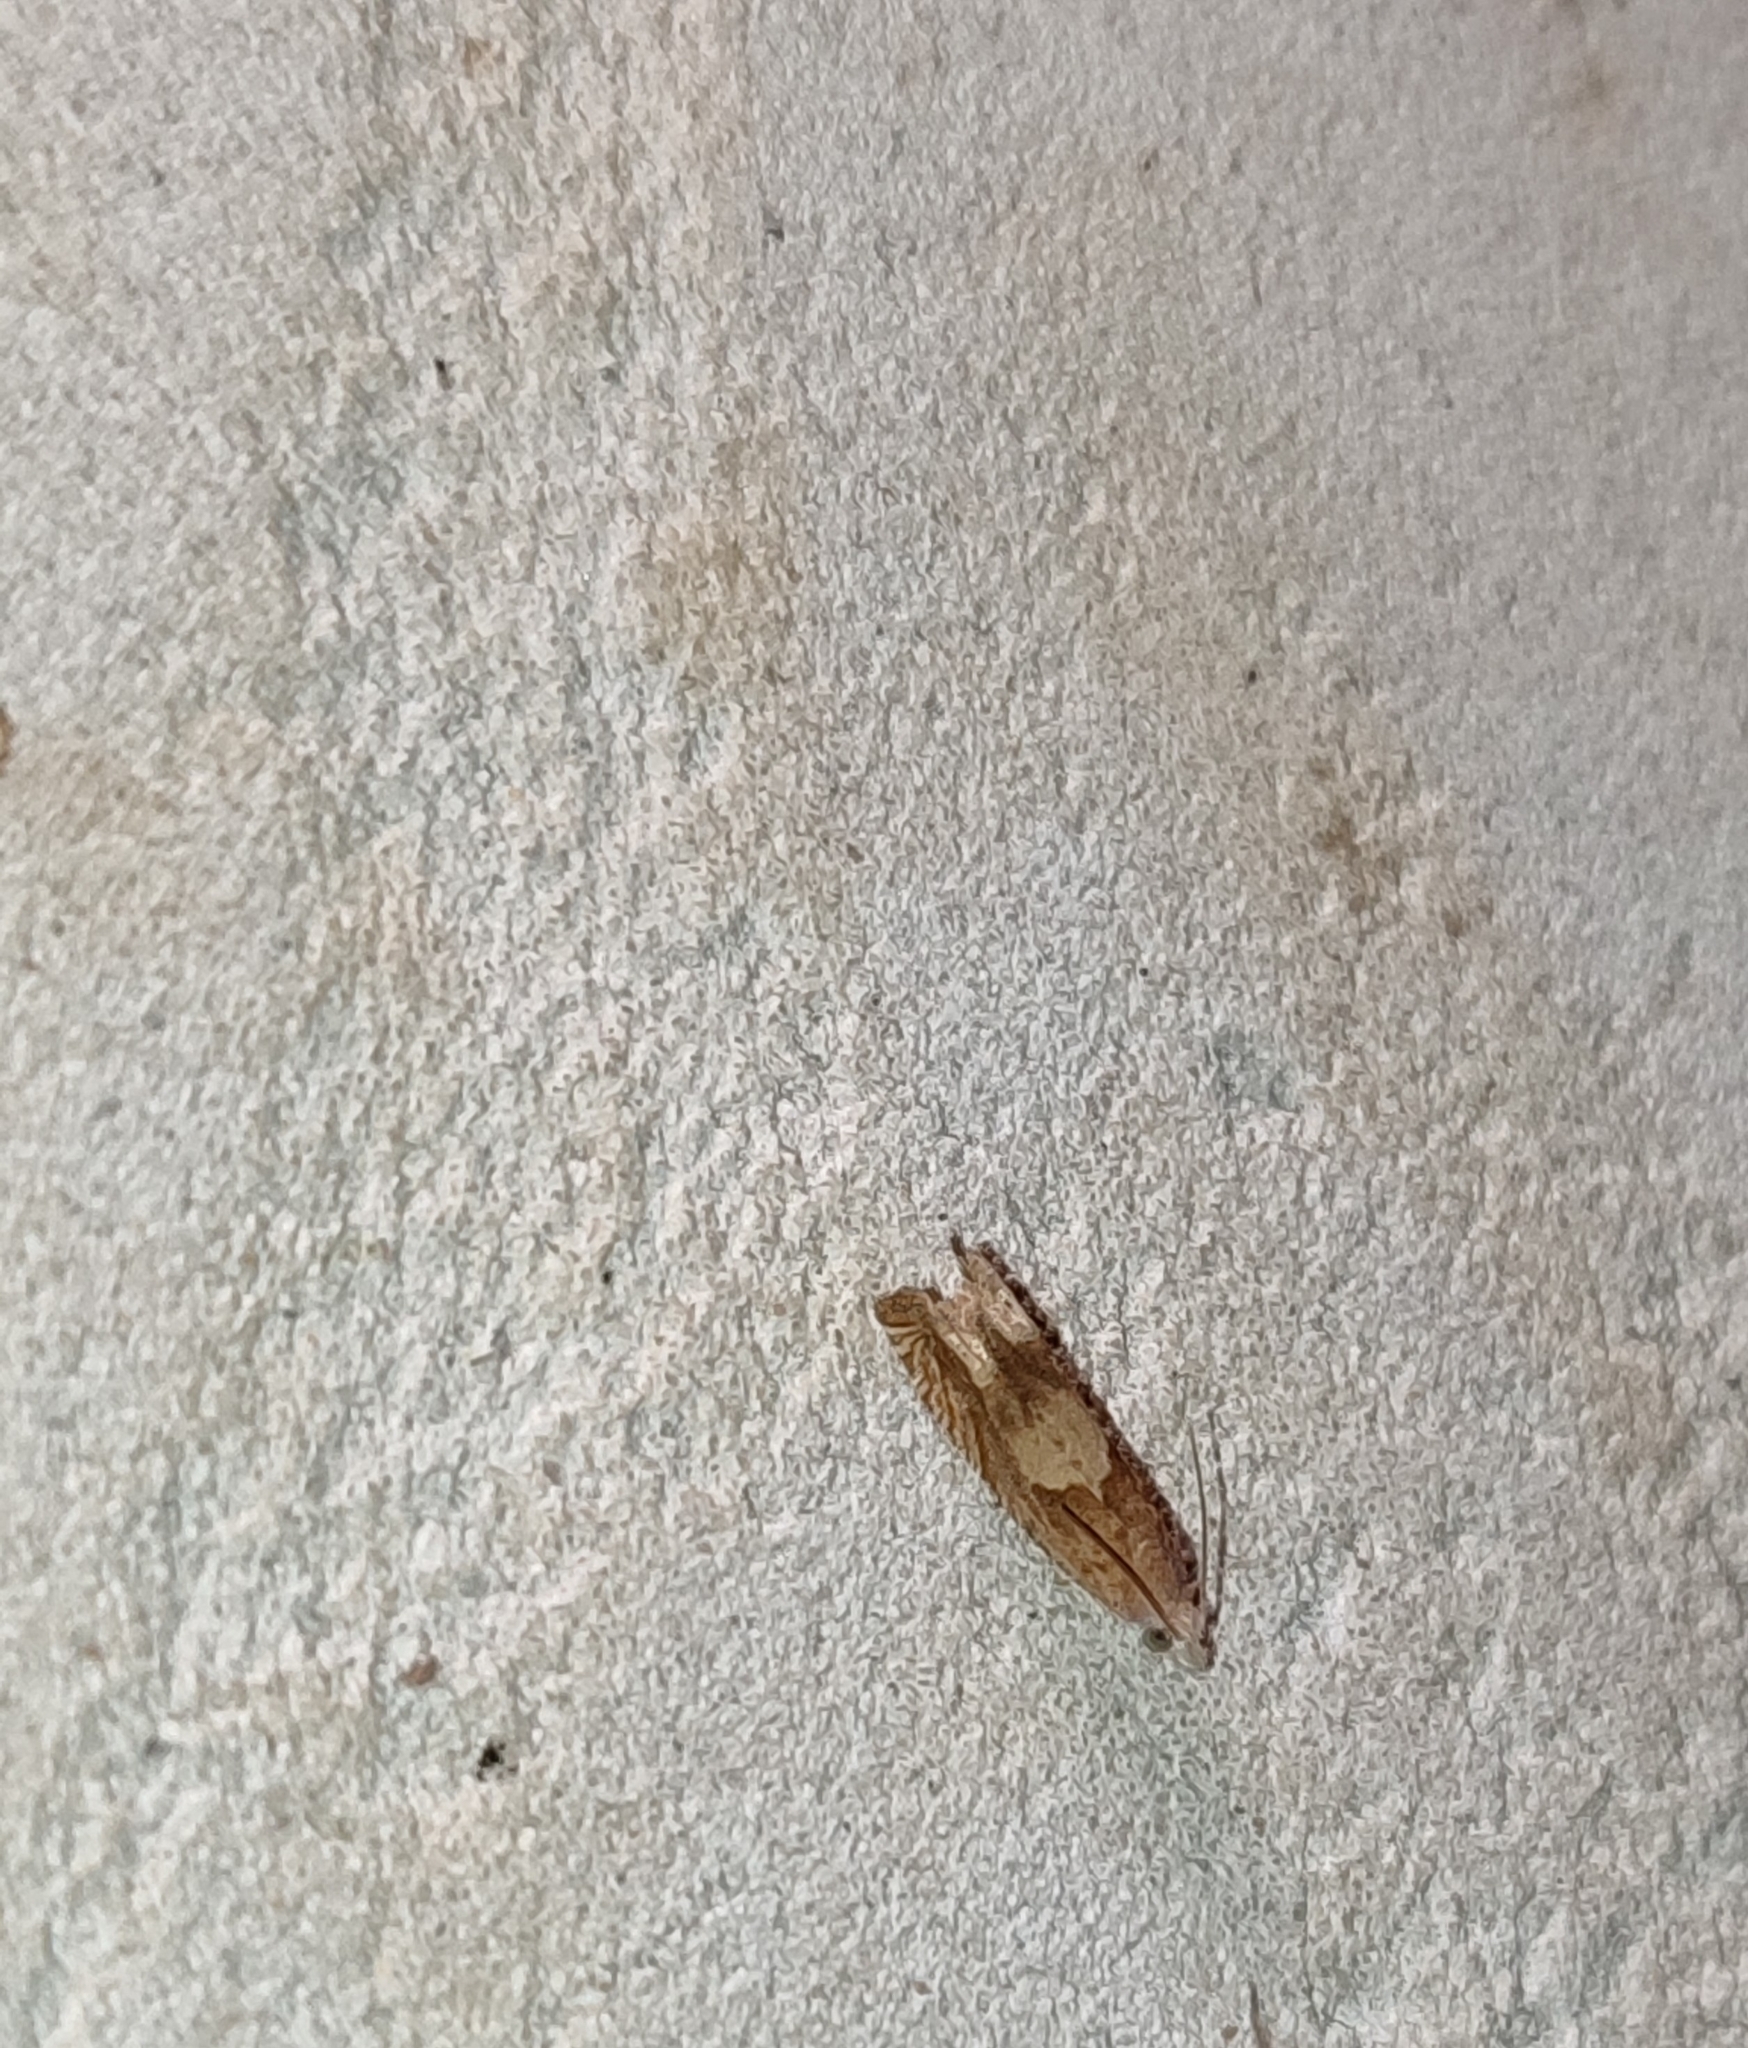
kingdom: Animalia
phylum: Arthropoda
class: Insecta
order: Lepidoptera
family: Tortricidae
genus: Eucosma
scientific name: Eucosma conterminana
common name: Pale lettuce bell
